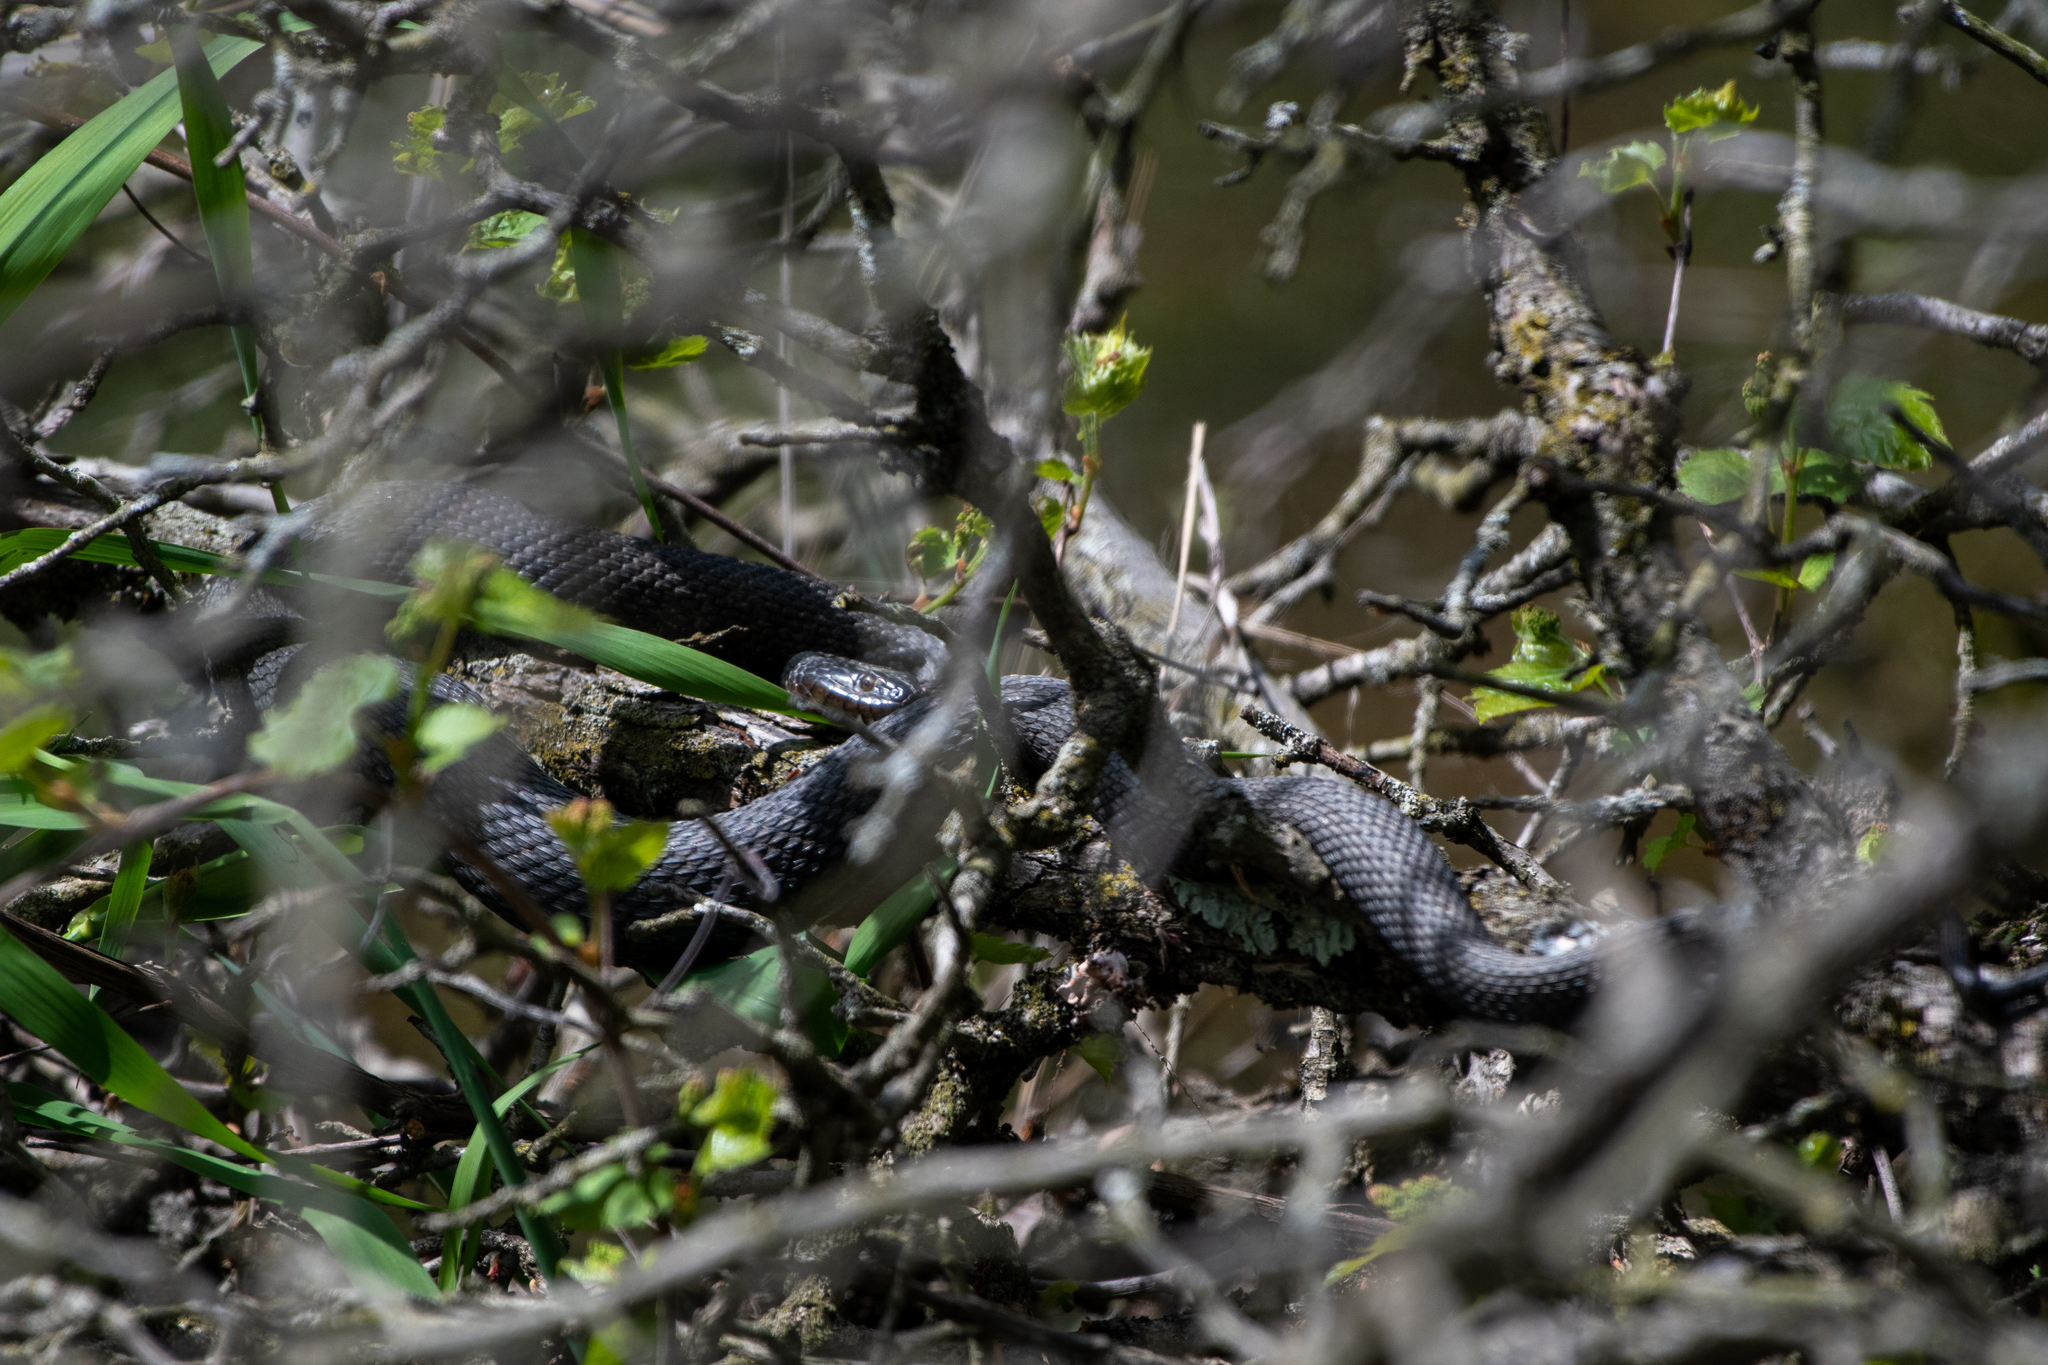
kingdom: Animalia
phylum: Chordata
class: Squamata
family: Colubridae
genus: Nerodia
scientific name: Nerodia sipedon
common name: Northern water snake
